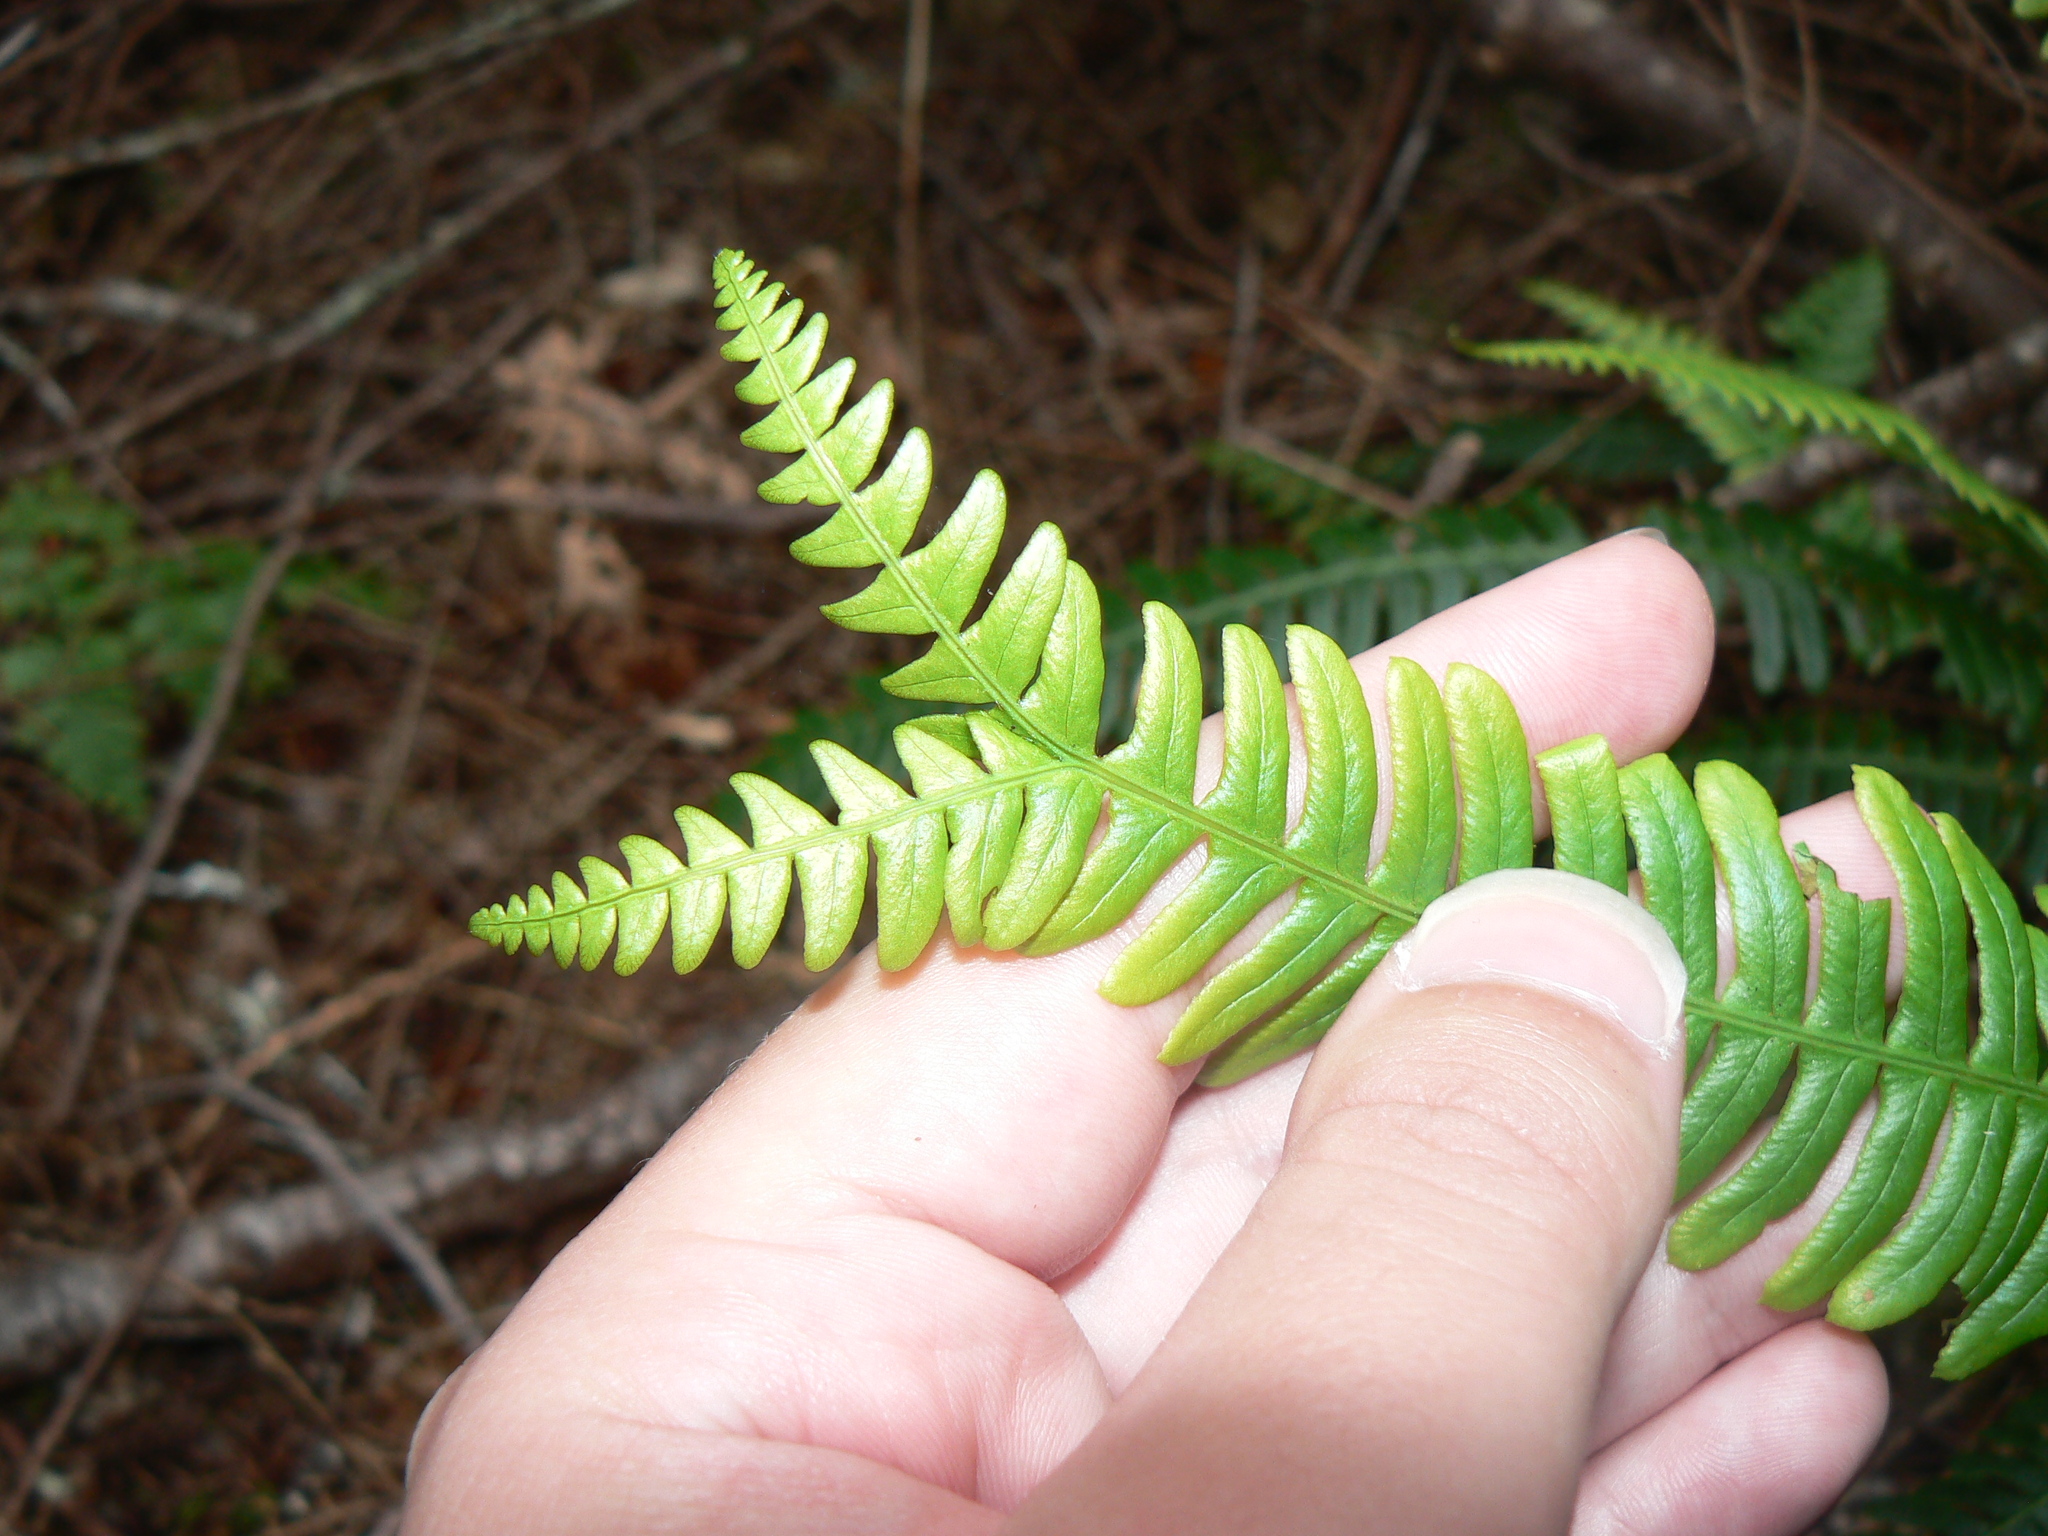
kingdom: Plantae
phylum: Tracheophyta
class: Polypodiopsida
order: Polypodiales
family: Blechnaceae
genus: Struthiopteris
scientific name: Struthiopteris spicant
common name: Deer fern
